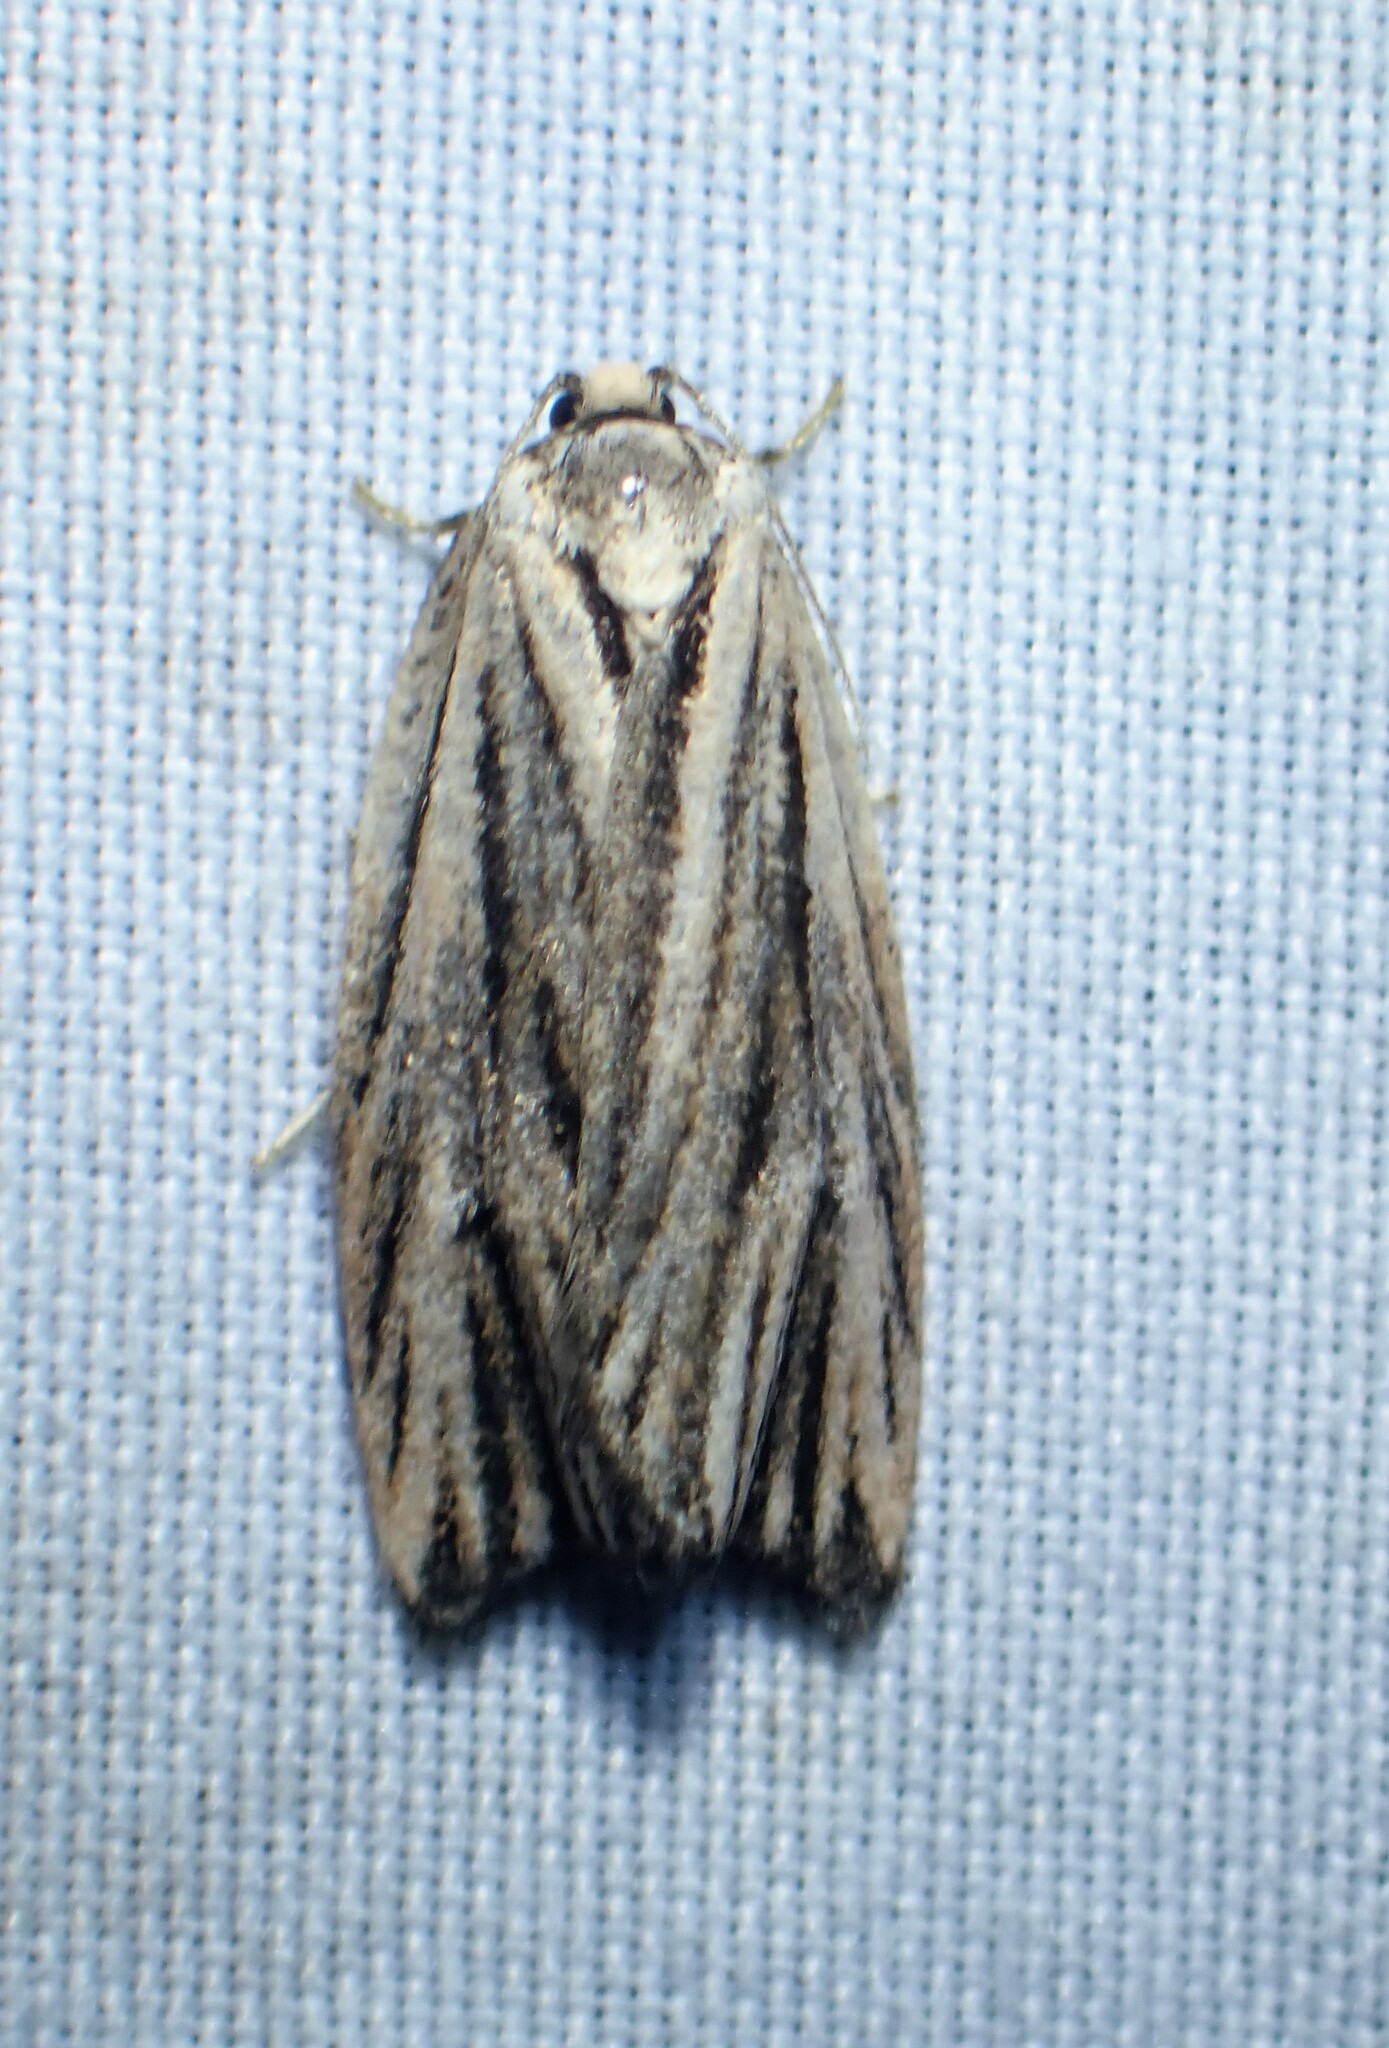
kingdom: Animalia
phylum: Arthropoda
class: Insecta
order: Lepidoptera
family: Tortricidae
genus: Archips
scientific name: Archips strianus
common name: Striated tortrix moth
